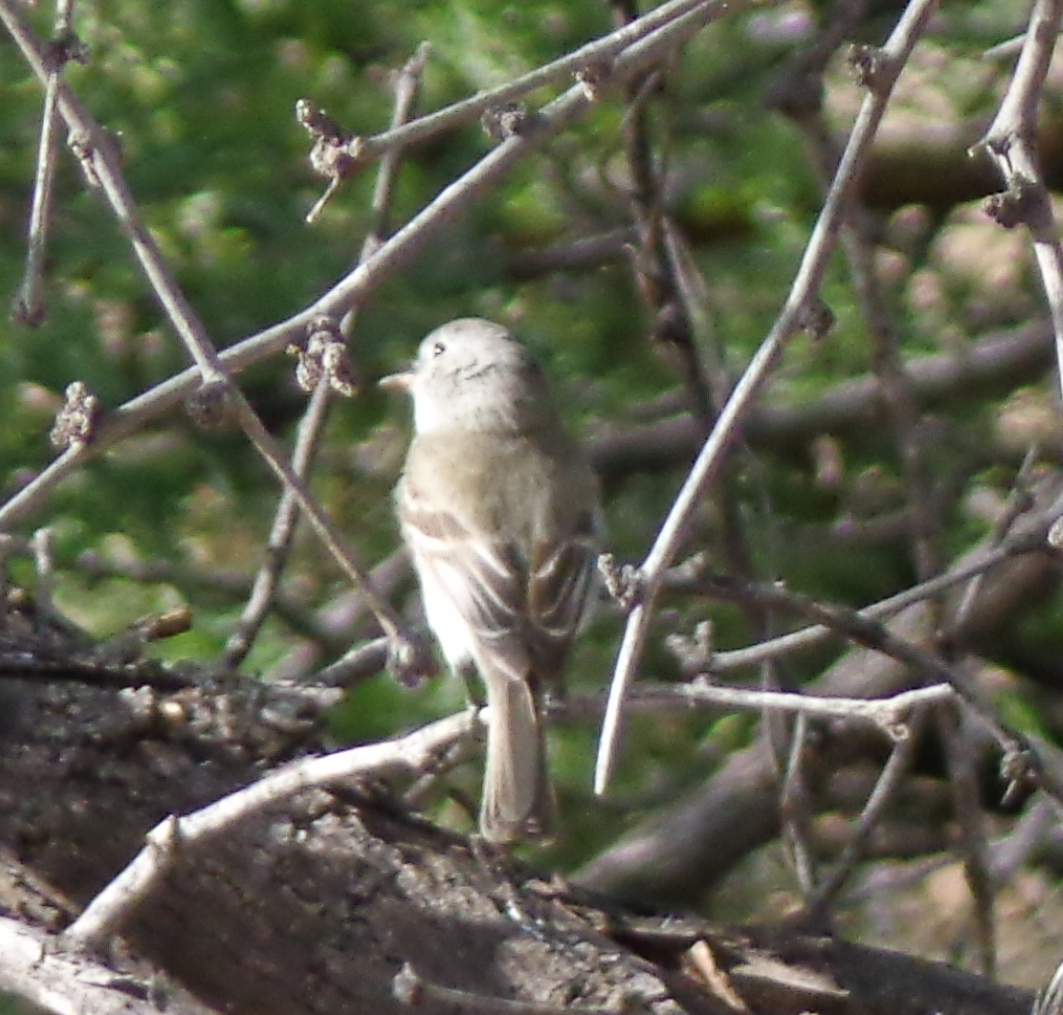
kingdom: Animalia
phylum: Chordata
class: Aves
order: Passeriformes
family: Tyrannidae
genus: Empidonax
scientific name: Empidonax wrightii
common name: Gray flycatcher
